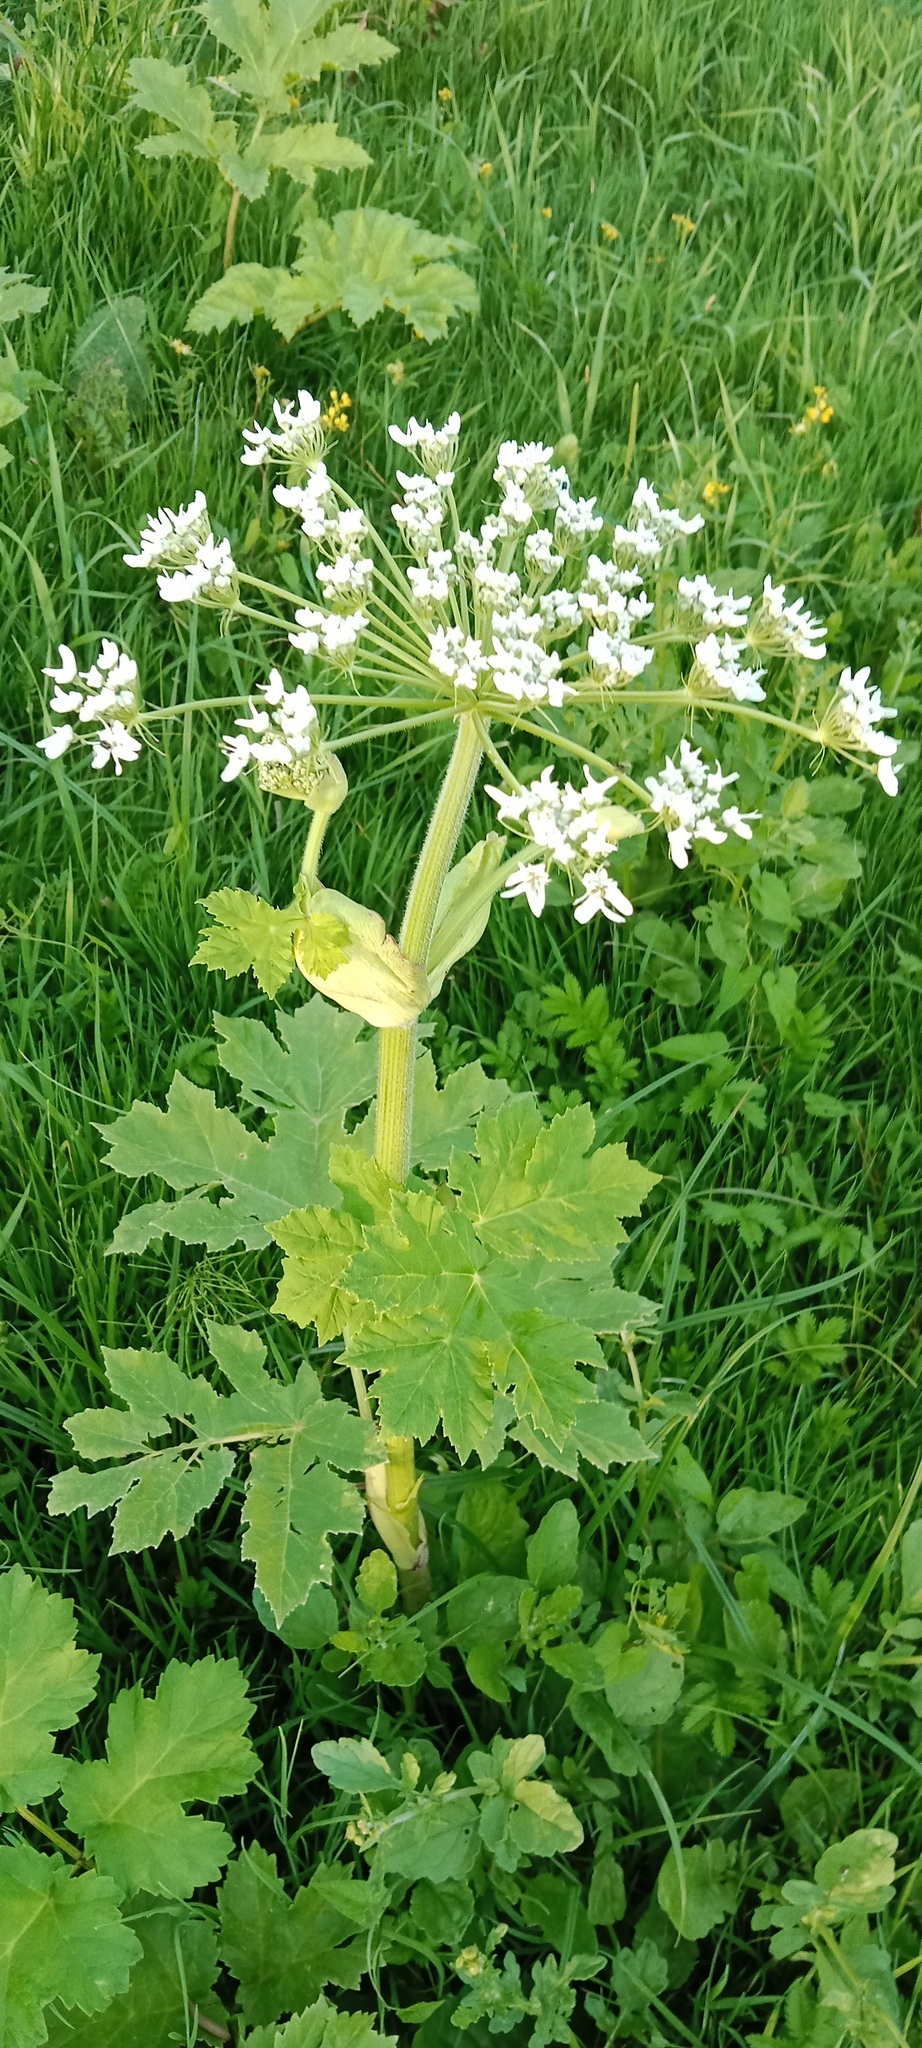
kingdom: Plantae
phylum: Tracheophyta
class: Magnoliopsida
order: Apiales
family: Apiaceae
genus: Heracleum
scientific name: Heracleum sosnowskyi
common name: Sosnowsky's hogweed
